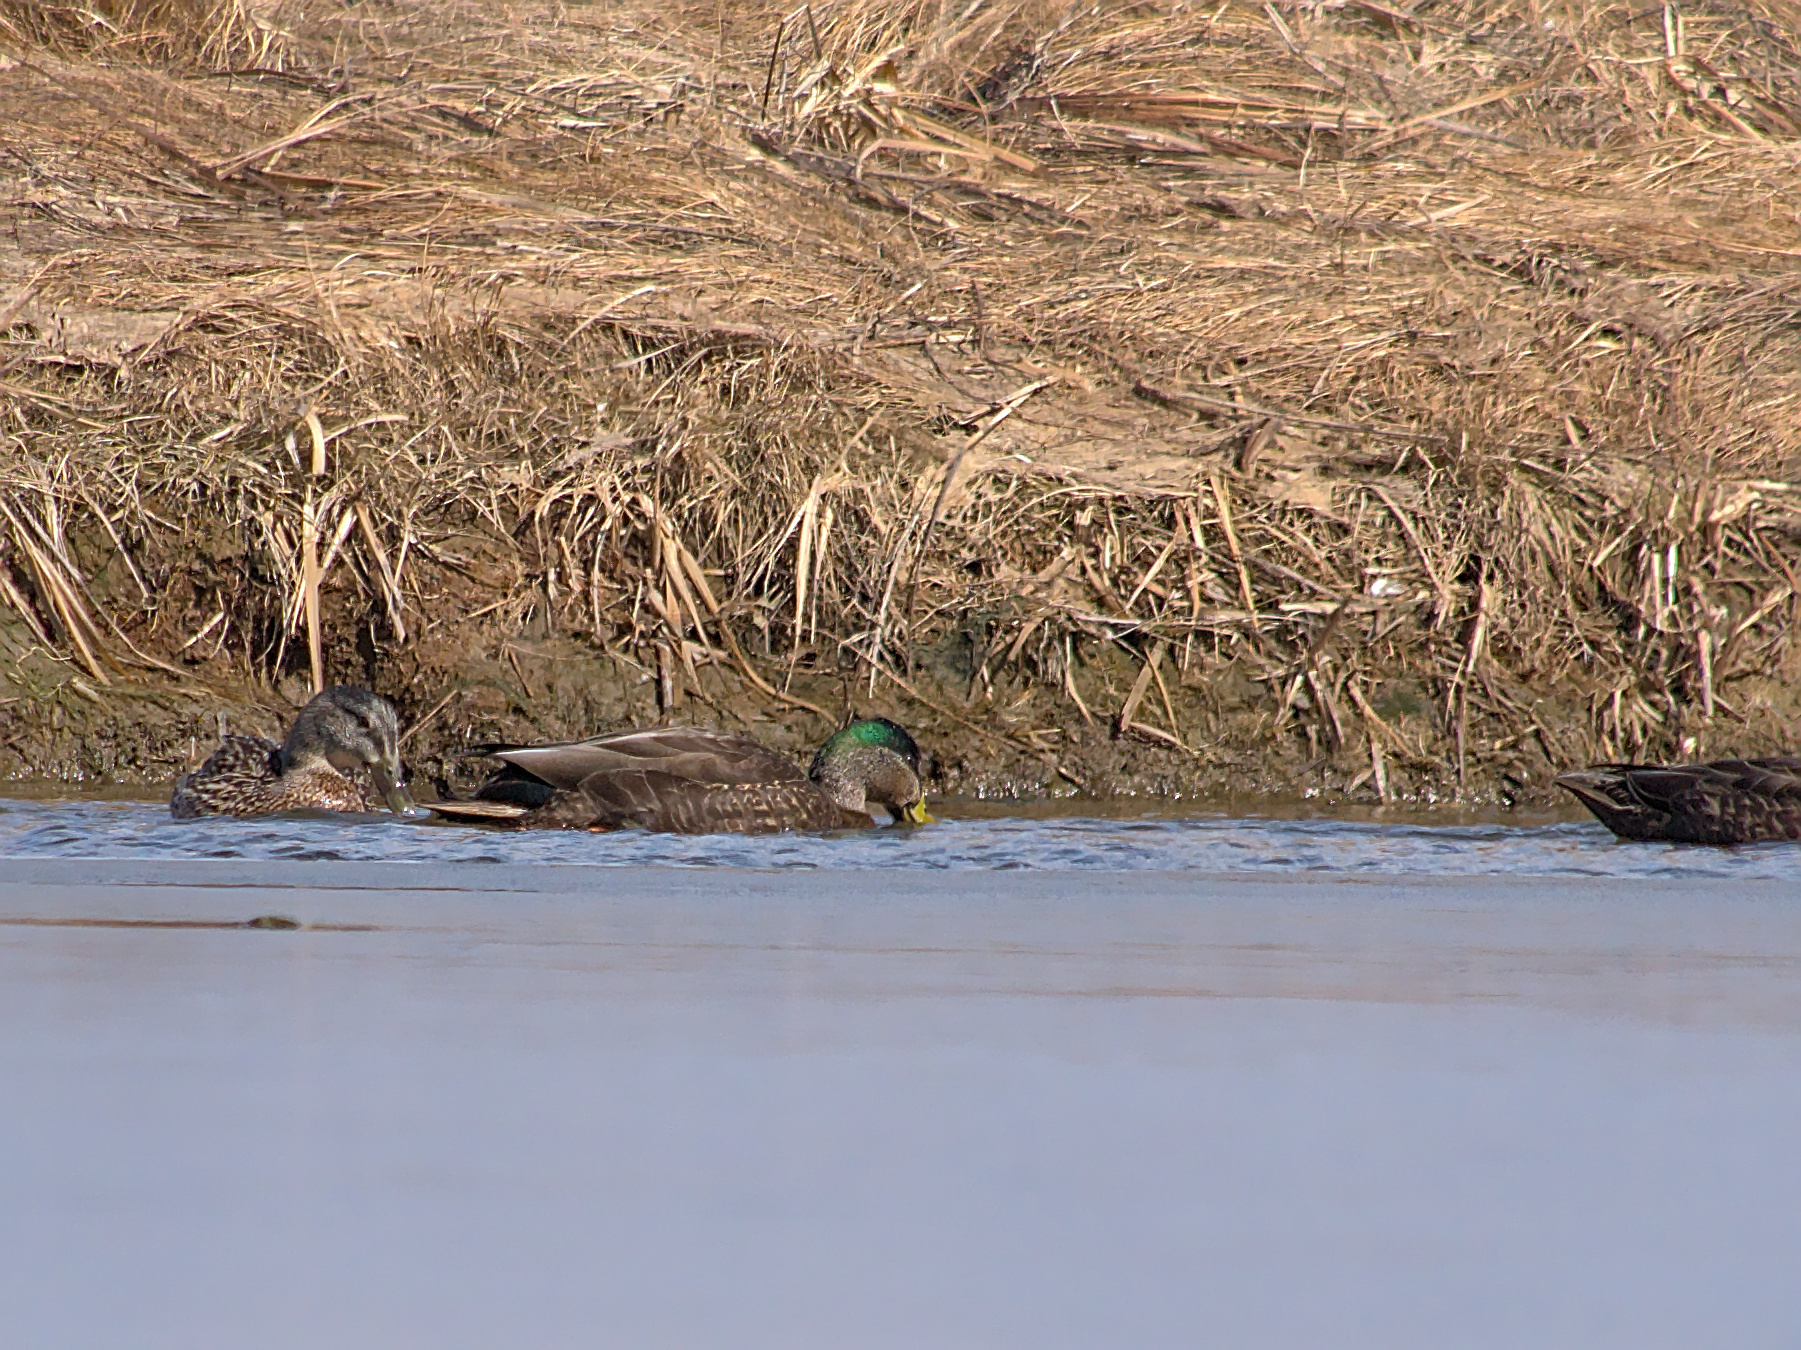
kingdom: Animalia
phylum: Chordata
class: Aves
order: Anseriformes
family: Anatidae
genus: Anas
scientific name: Anas
